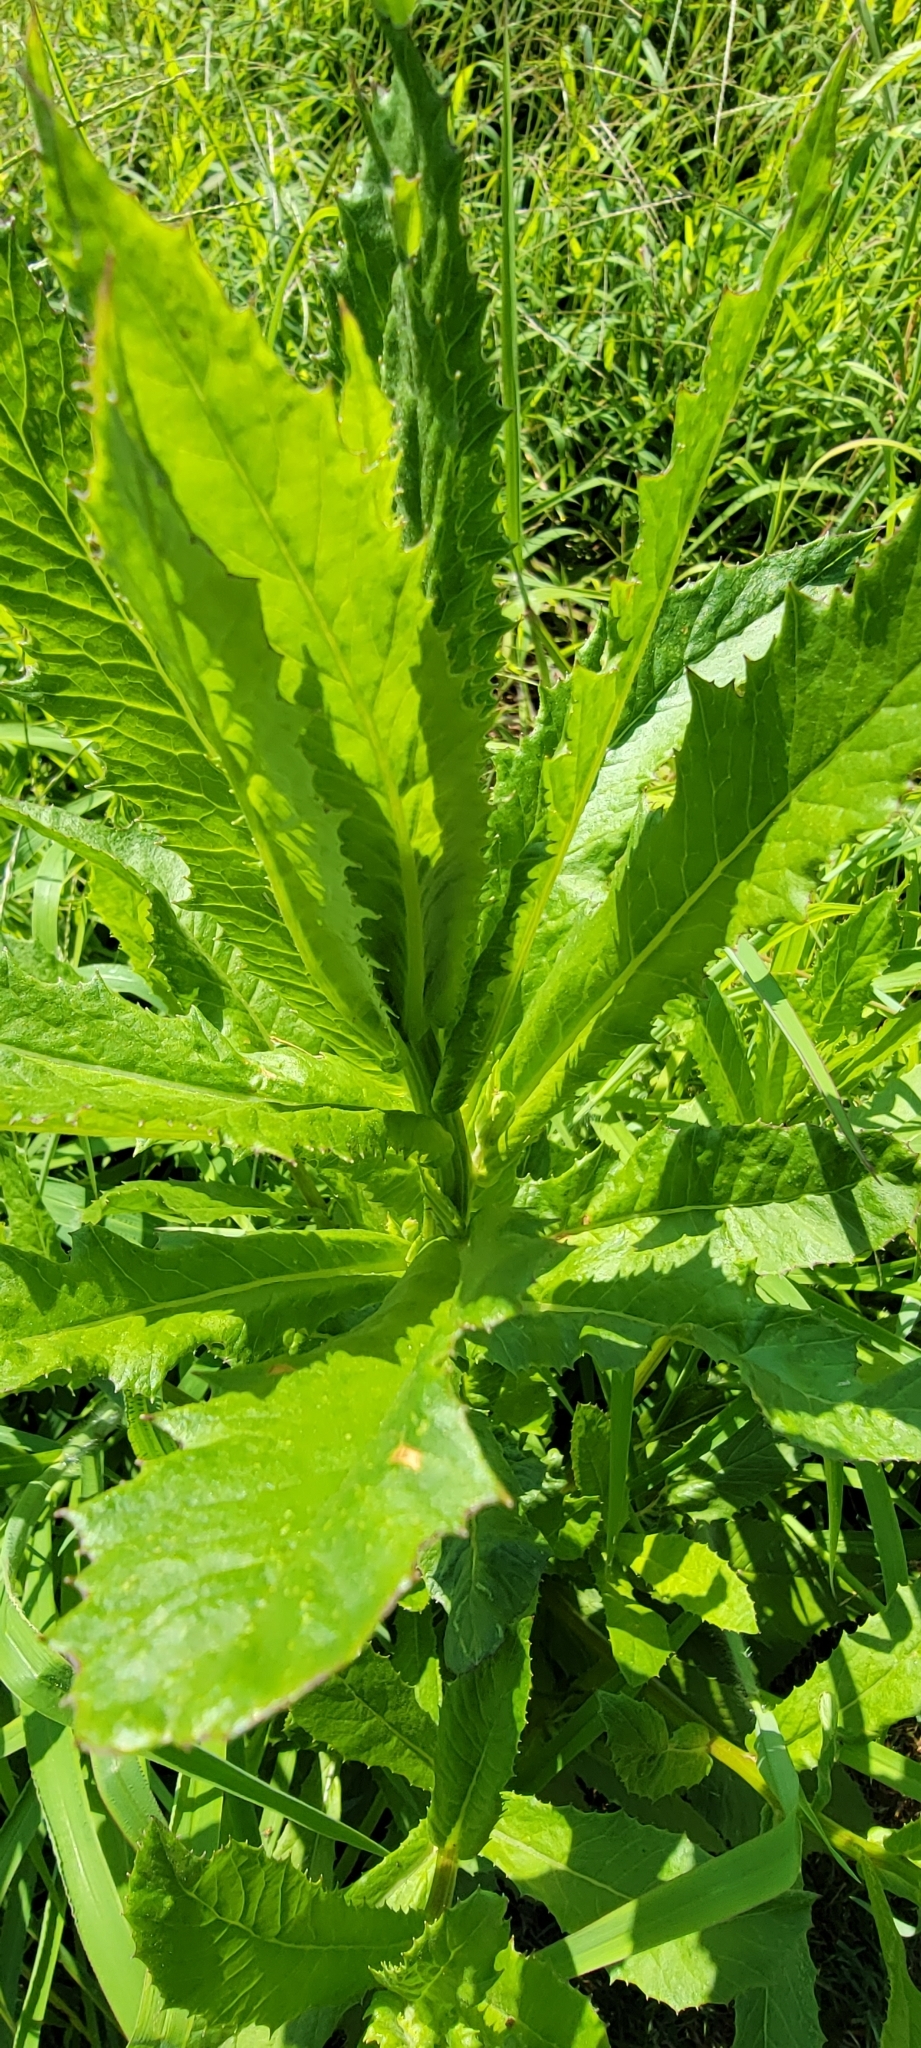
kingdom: Plantae
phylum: Tracheophyta
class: Magnoliopsida
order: Asterales
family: Asteraceae
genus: Erechtites
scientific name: Erechtites hieraciifolius
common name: American burnweed
